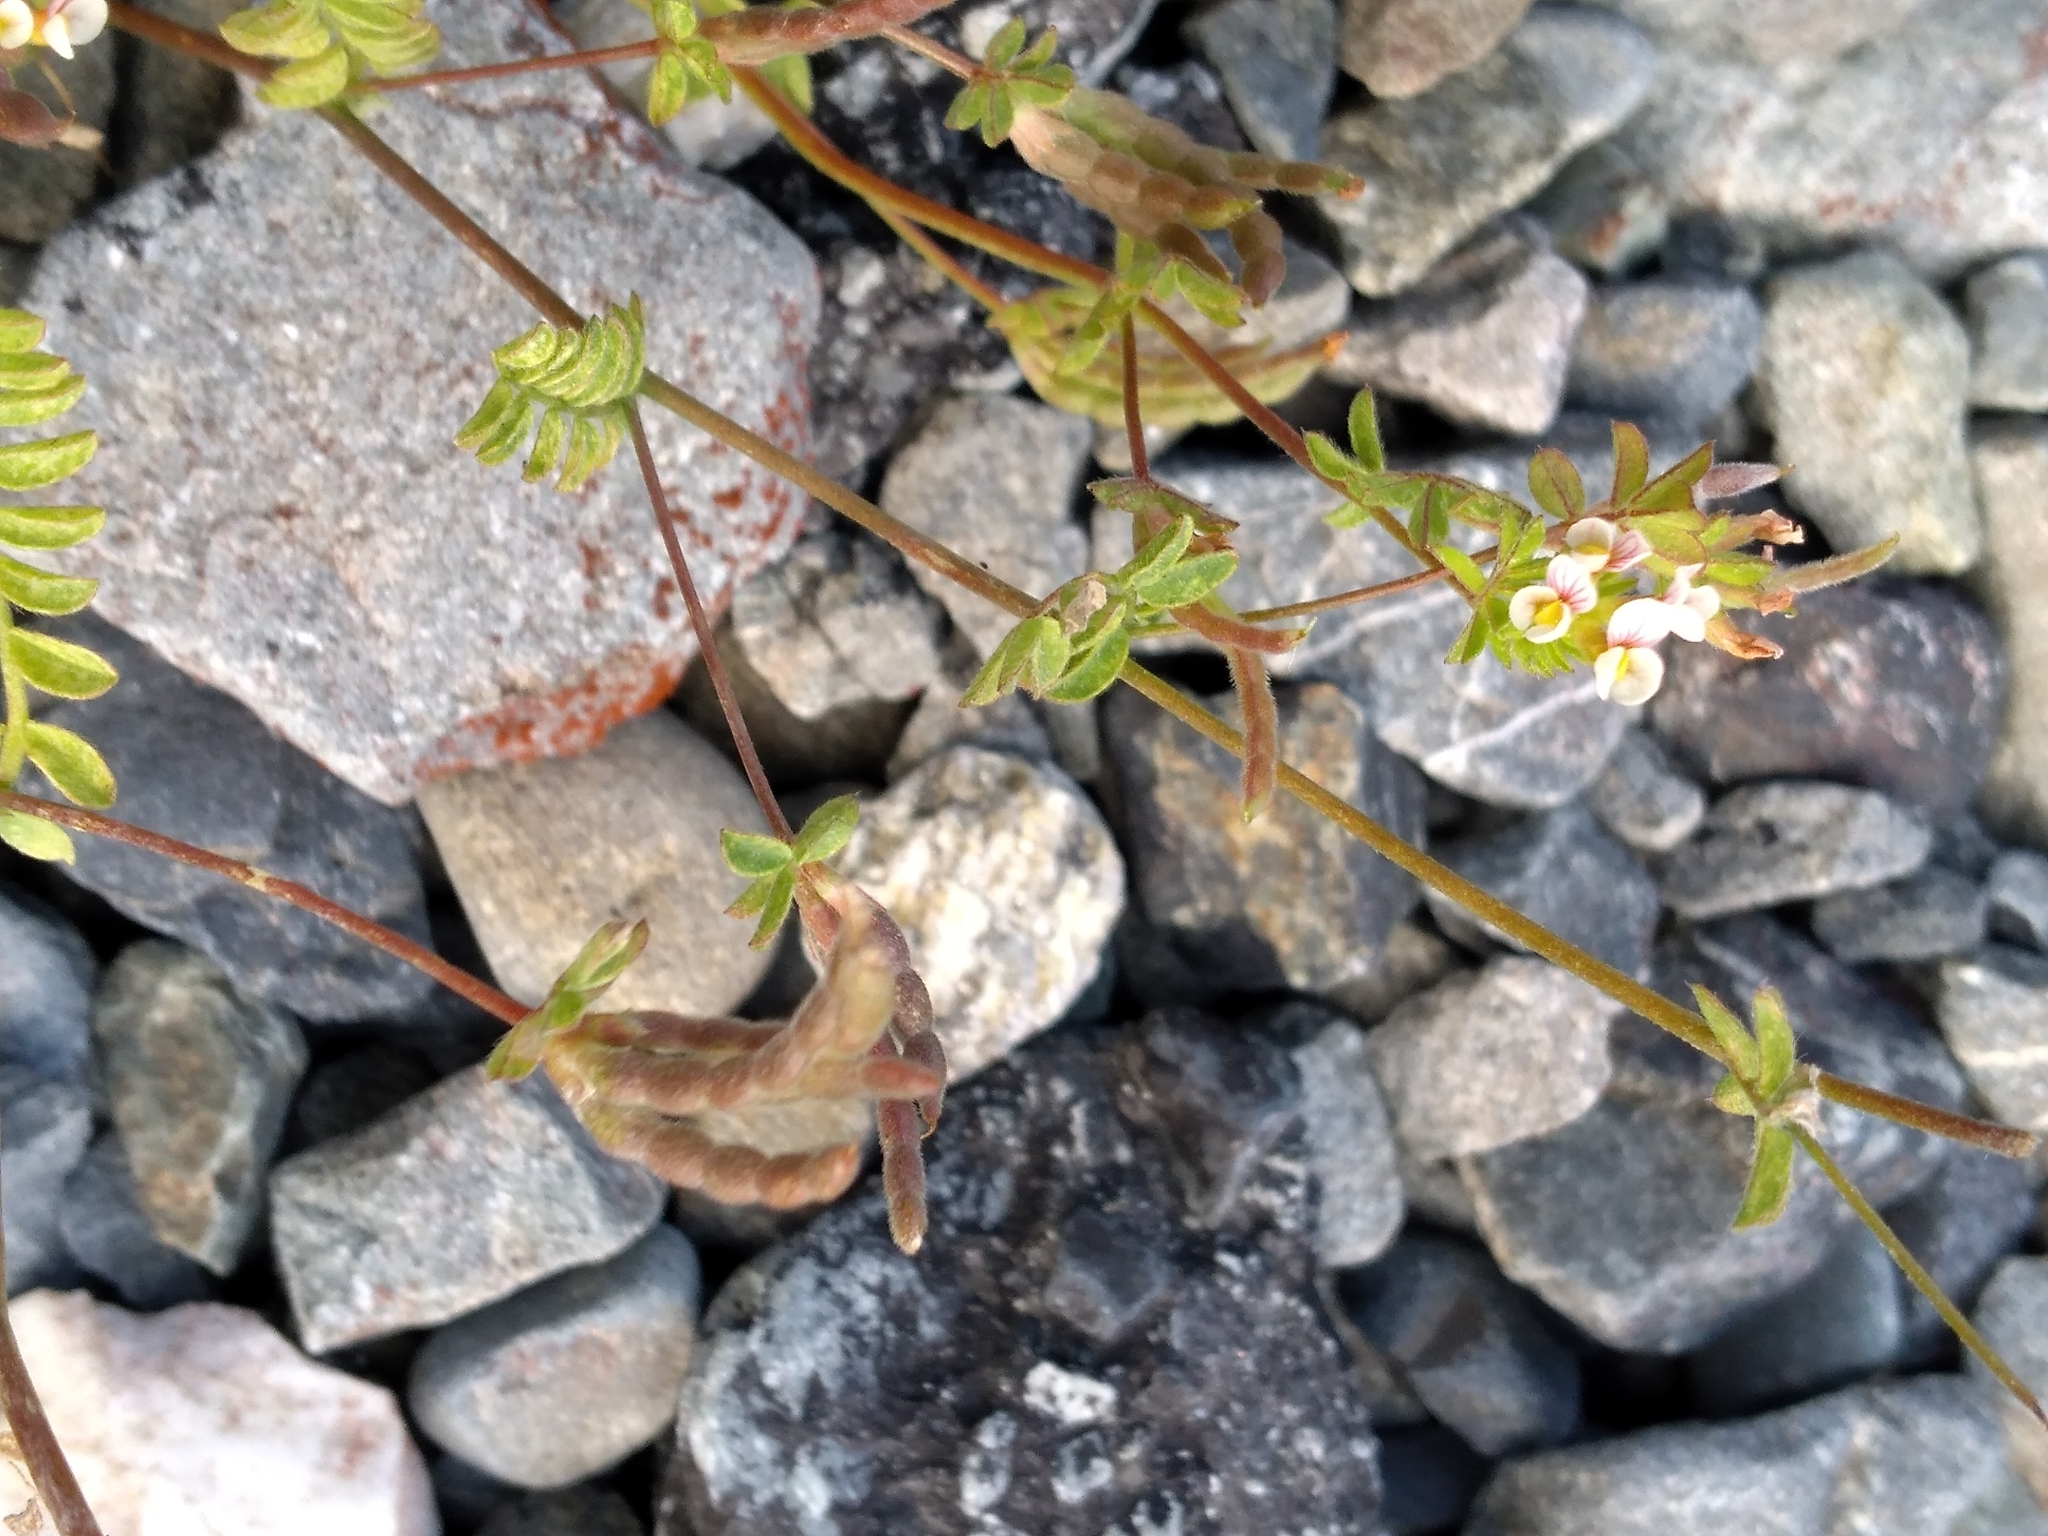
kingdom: Plantae
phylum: Tracheophyta
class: Magnoliopsida
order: Fabales
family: Fabaceae
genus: Ornithopus
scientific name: Ornithopus perpusillus
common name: Bird's-foot
